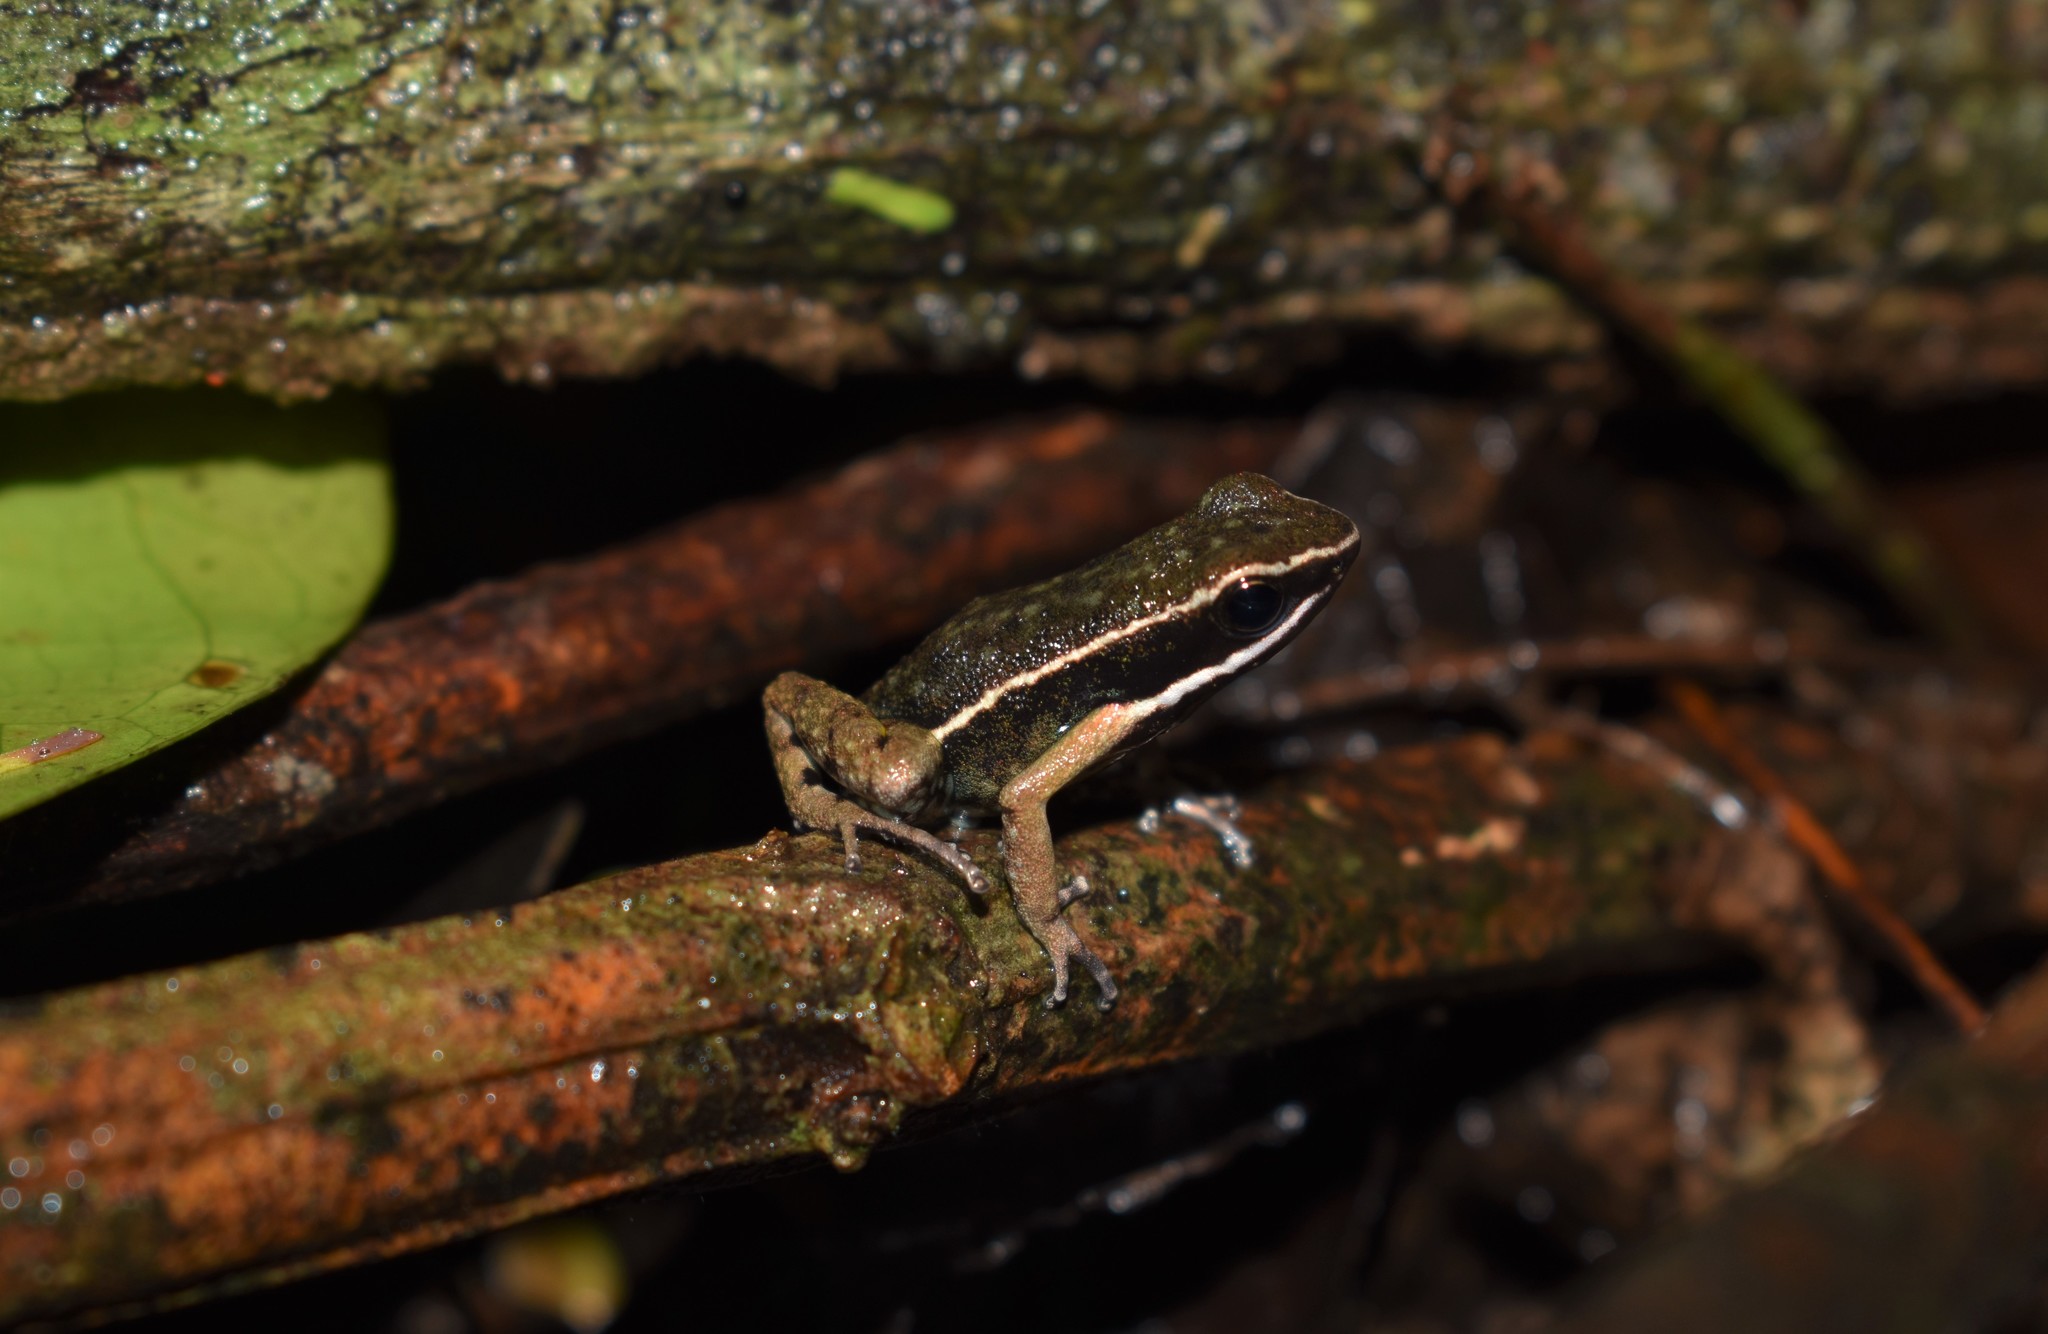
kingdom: Animalia
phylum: Chordata
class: Amphibia
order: Anura
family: Dendrobatidae
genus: Ameerega
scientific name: Ameerega hahneli
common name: Yurimaguas pioson frog
